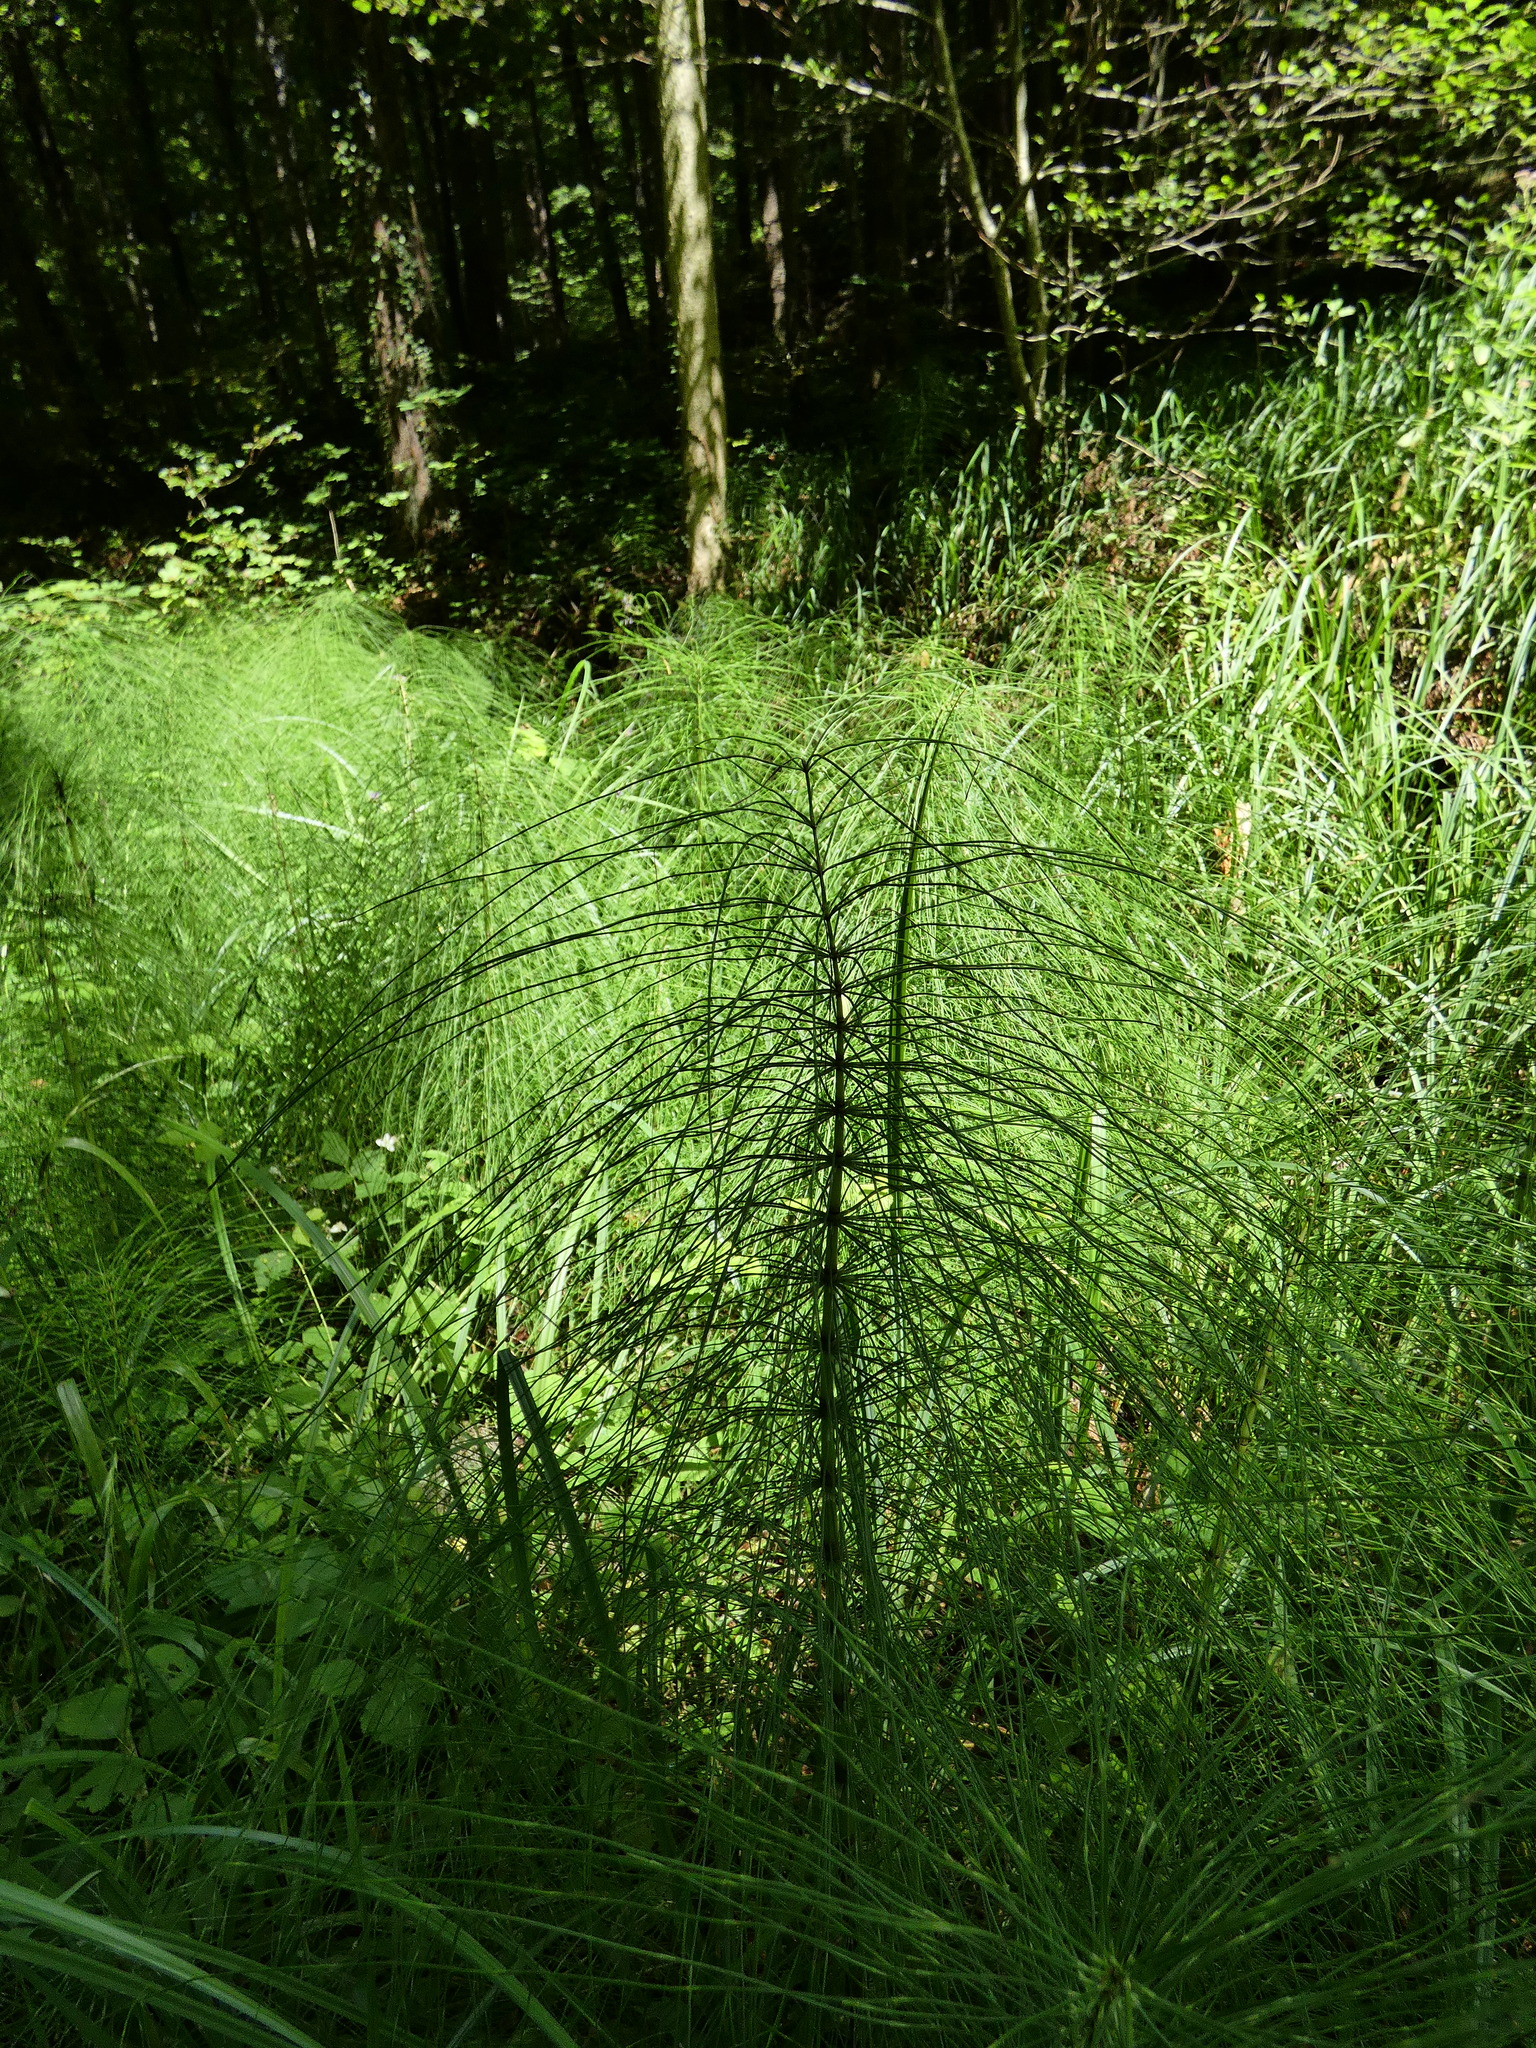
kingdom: Plantae
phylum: Tracheophyta
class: Polypodiopsida
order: Equisetales
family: Equisetaceae
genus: Equisetum
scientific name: Equisetum telmateia
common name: Great horsetail
